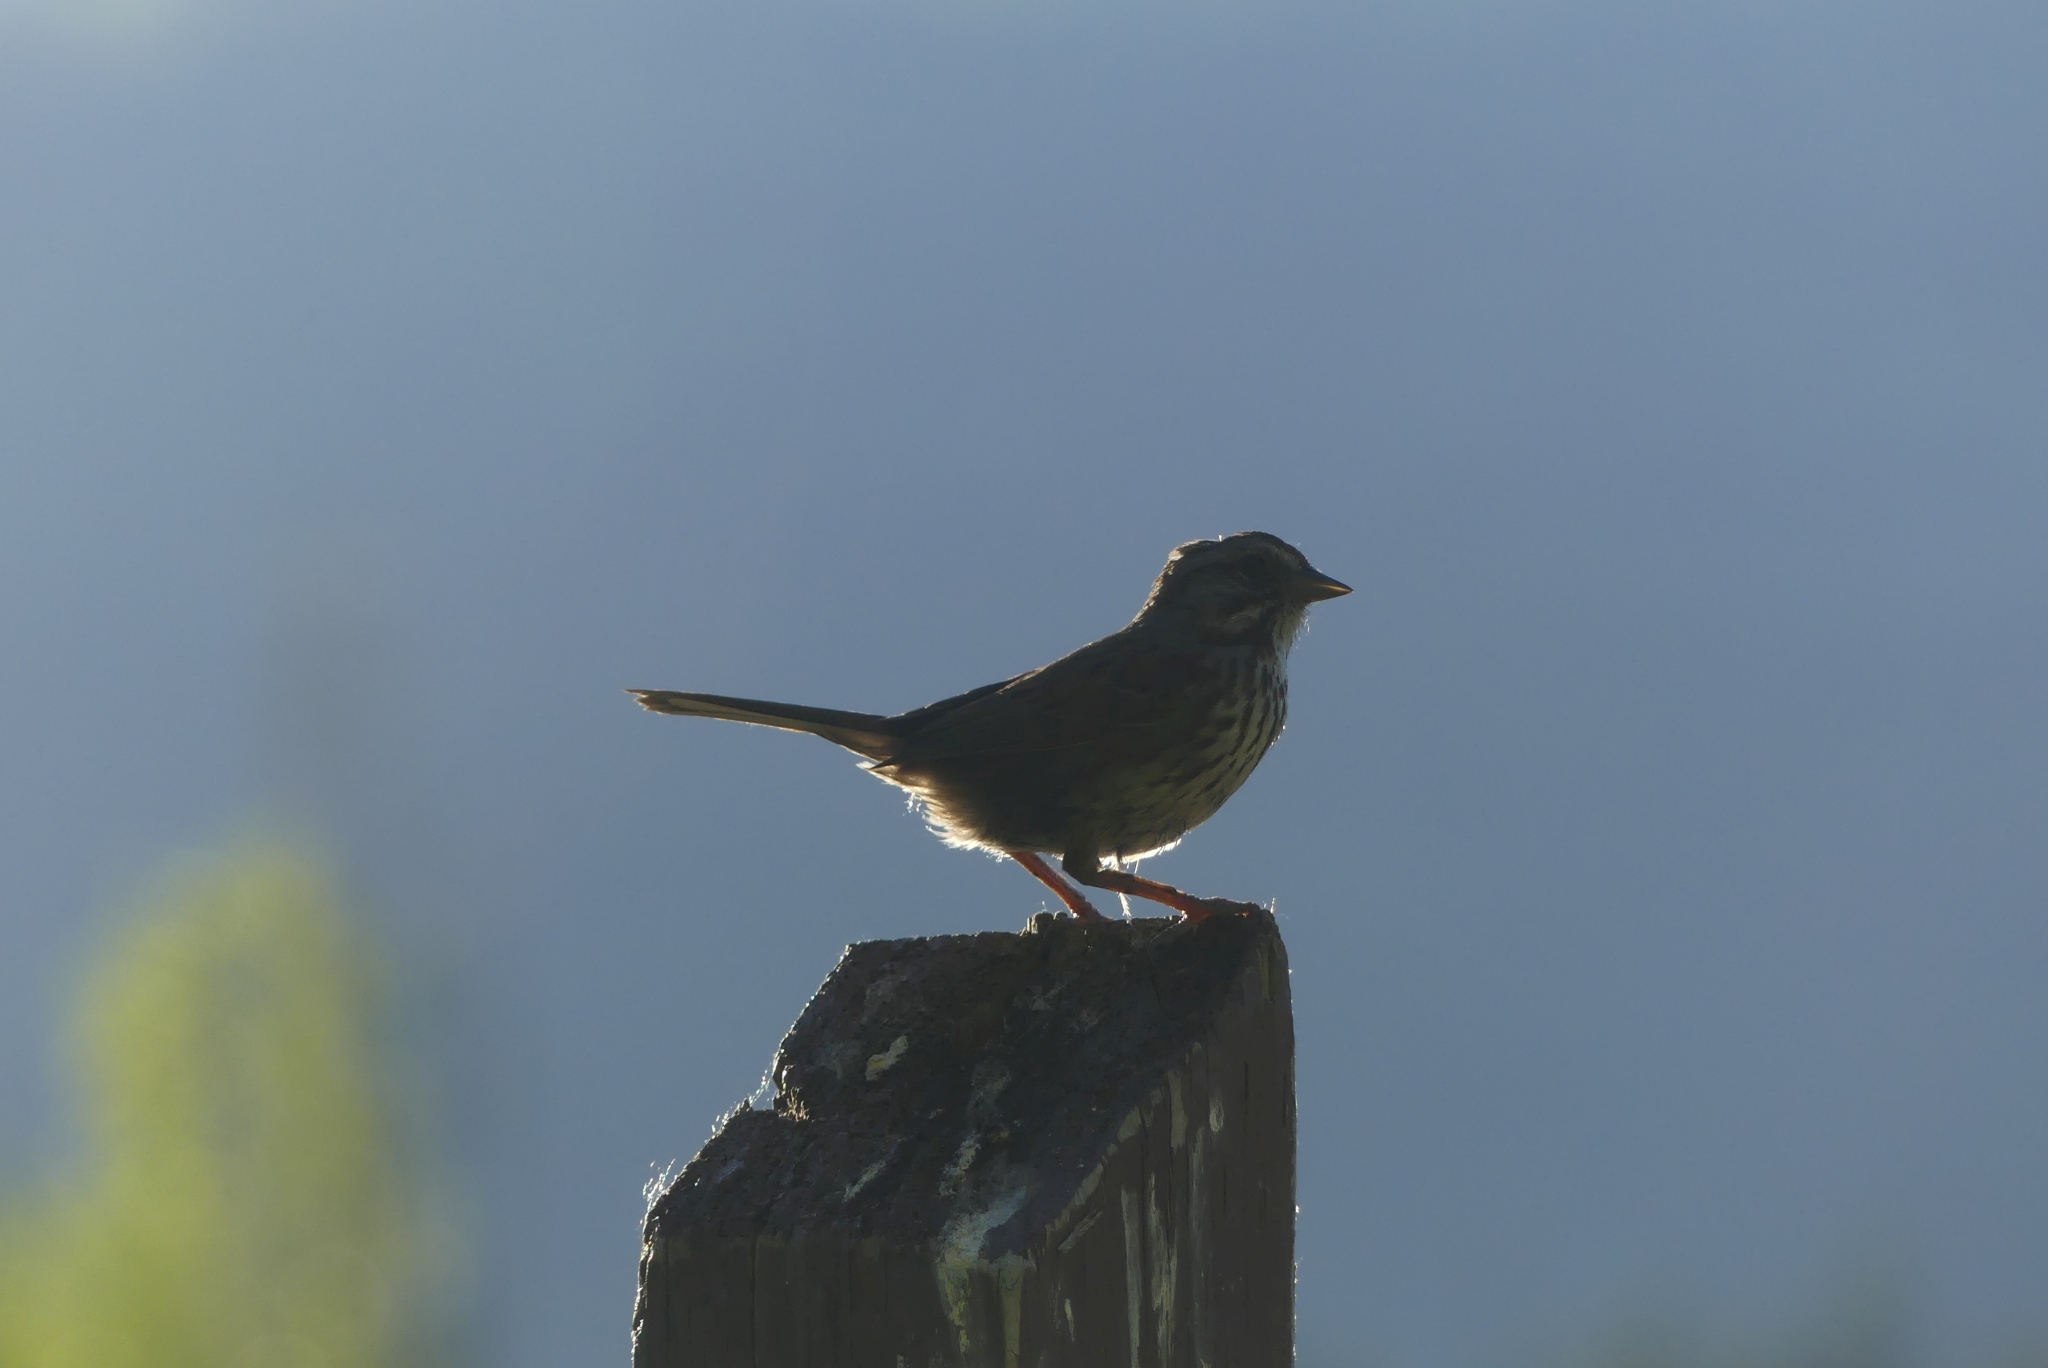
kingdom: Animalia
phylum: Chordata
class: Aves
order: Passeriformes
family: Passerellidae
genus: Melospiza
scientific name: Melospiza melodia
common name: Song sparrow
